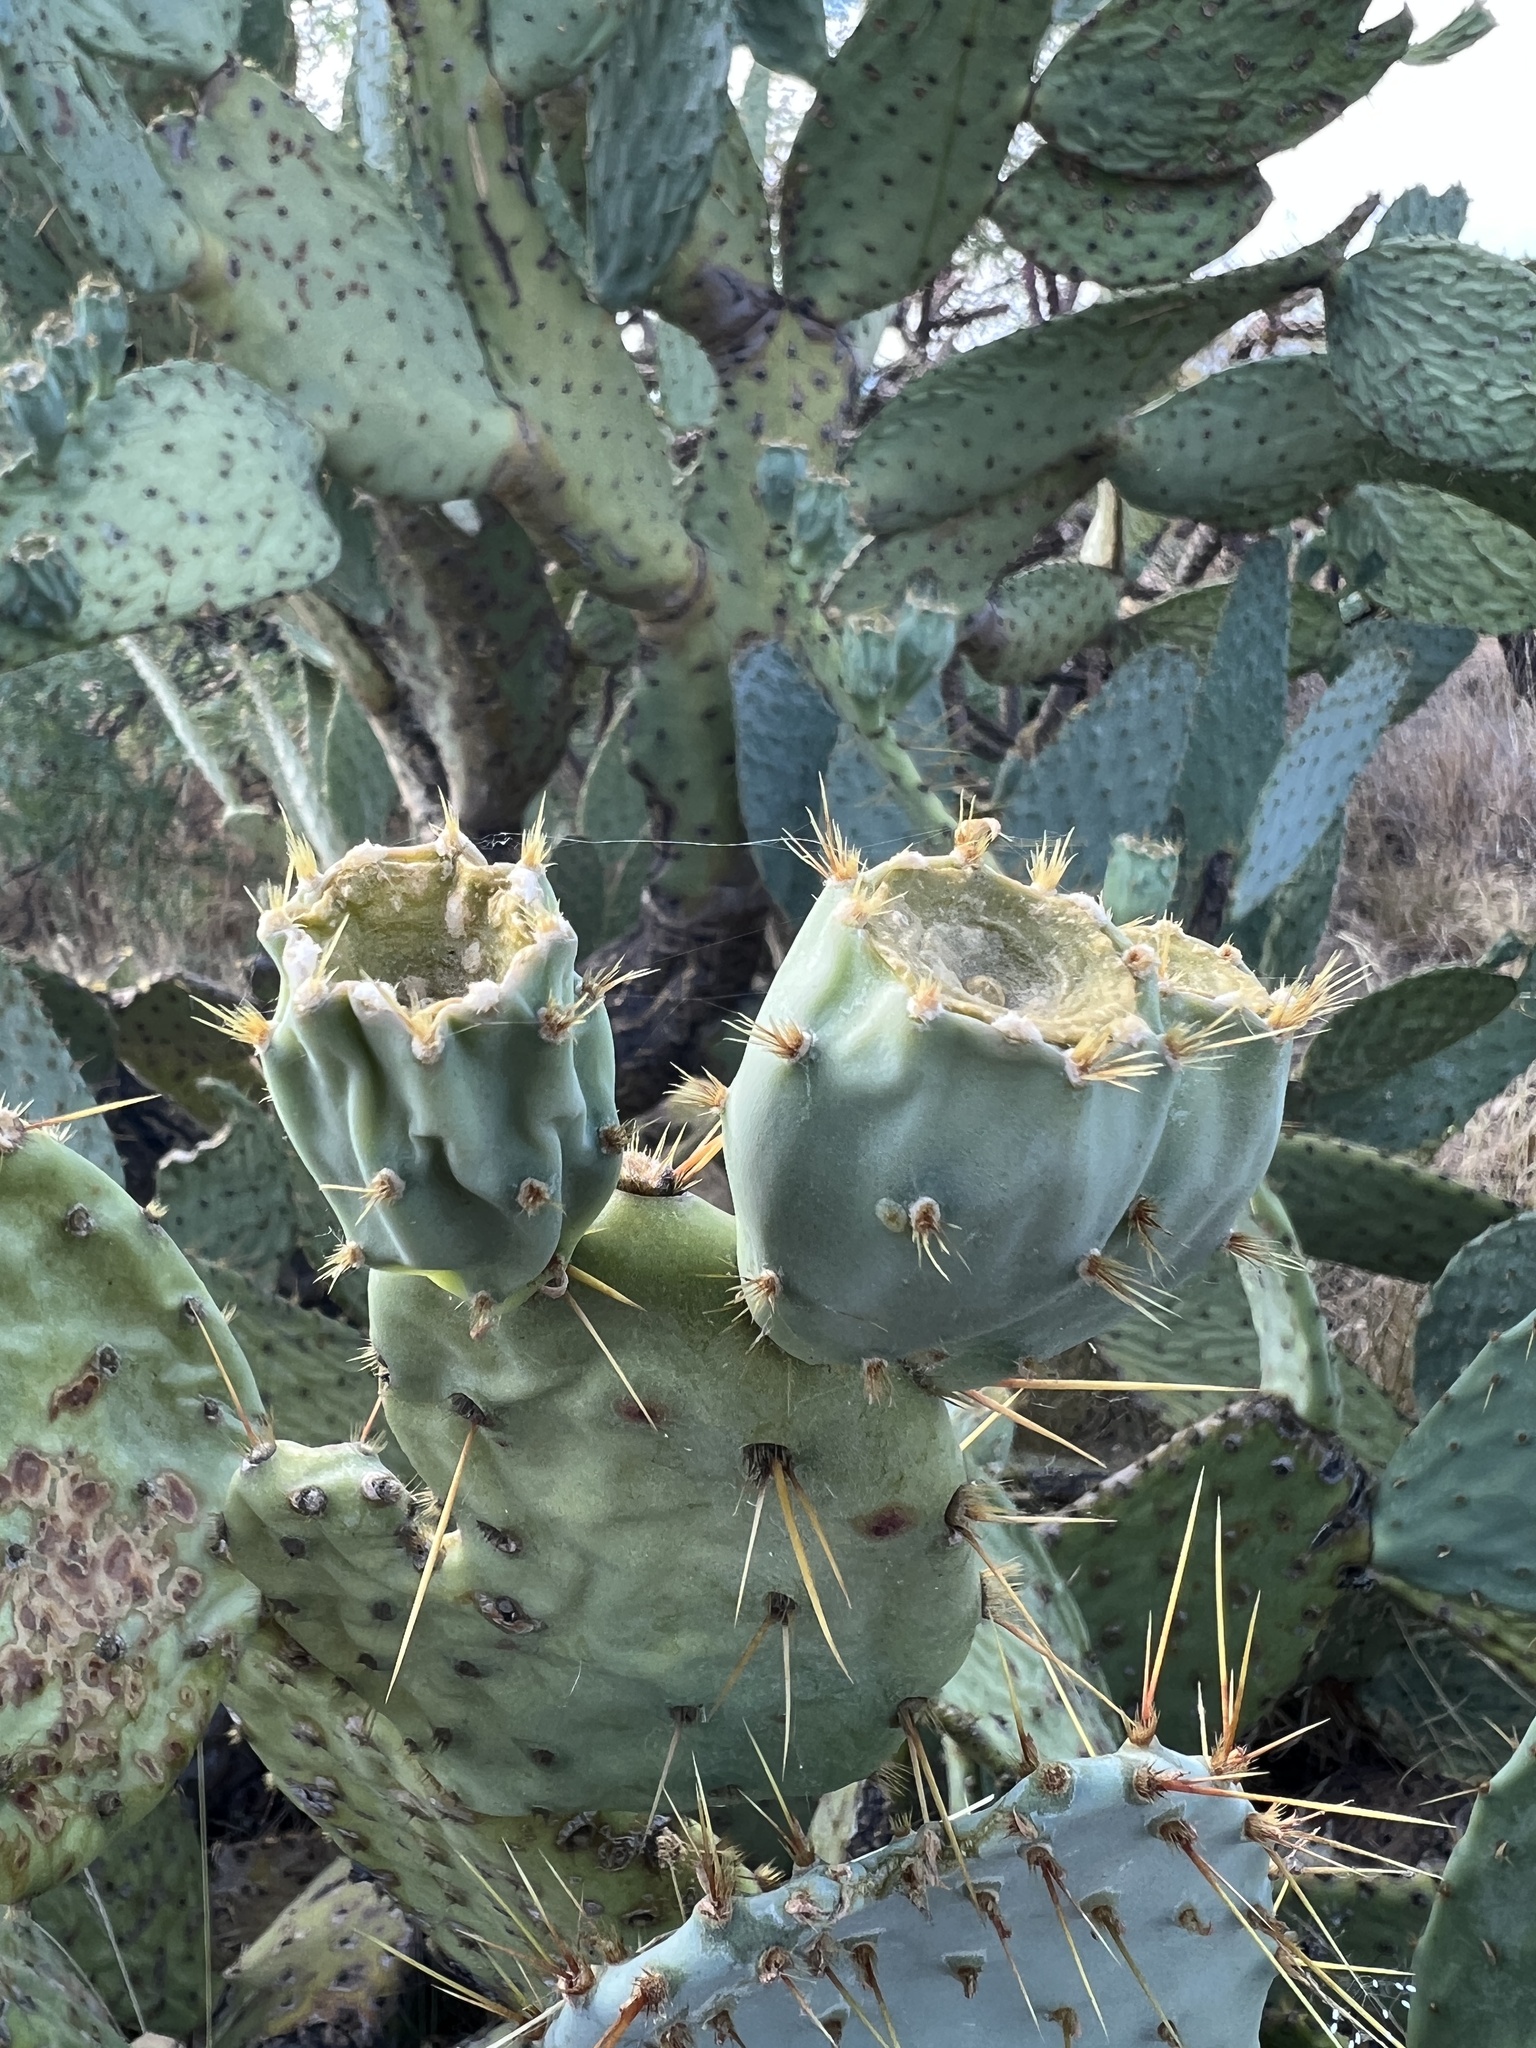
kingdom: Plantae
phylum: Tracheophyta
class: Magnoliopsida
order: Caryophyllales
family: Cactaceae
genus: Opuntia
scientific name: Opuntia engelmannii
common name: Cactus-apple
